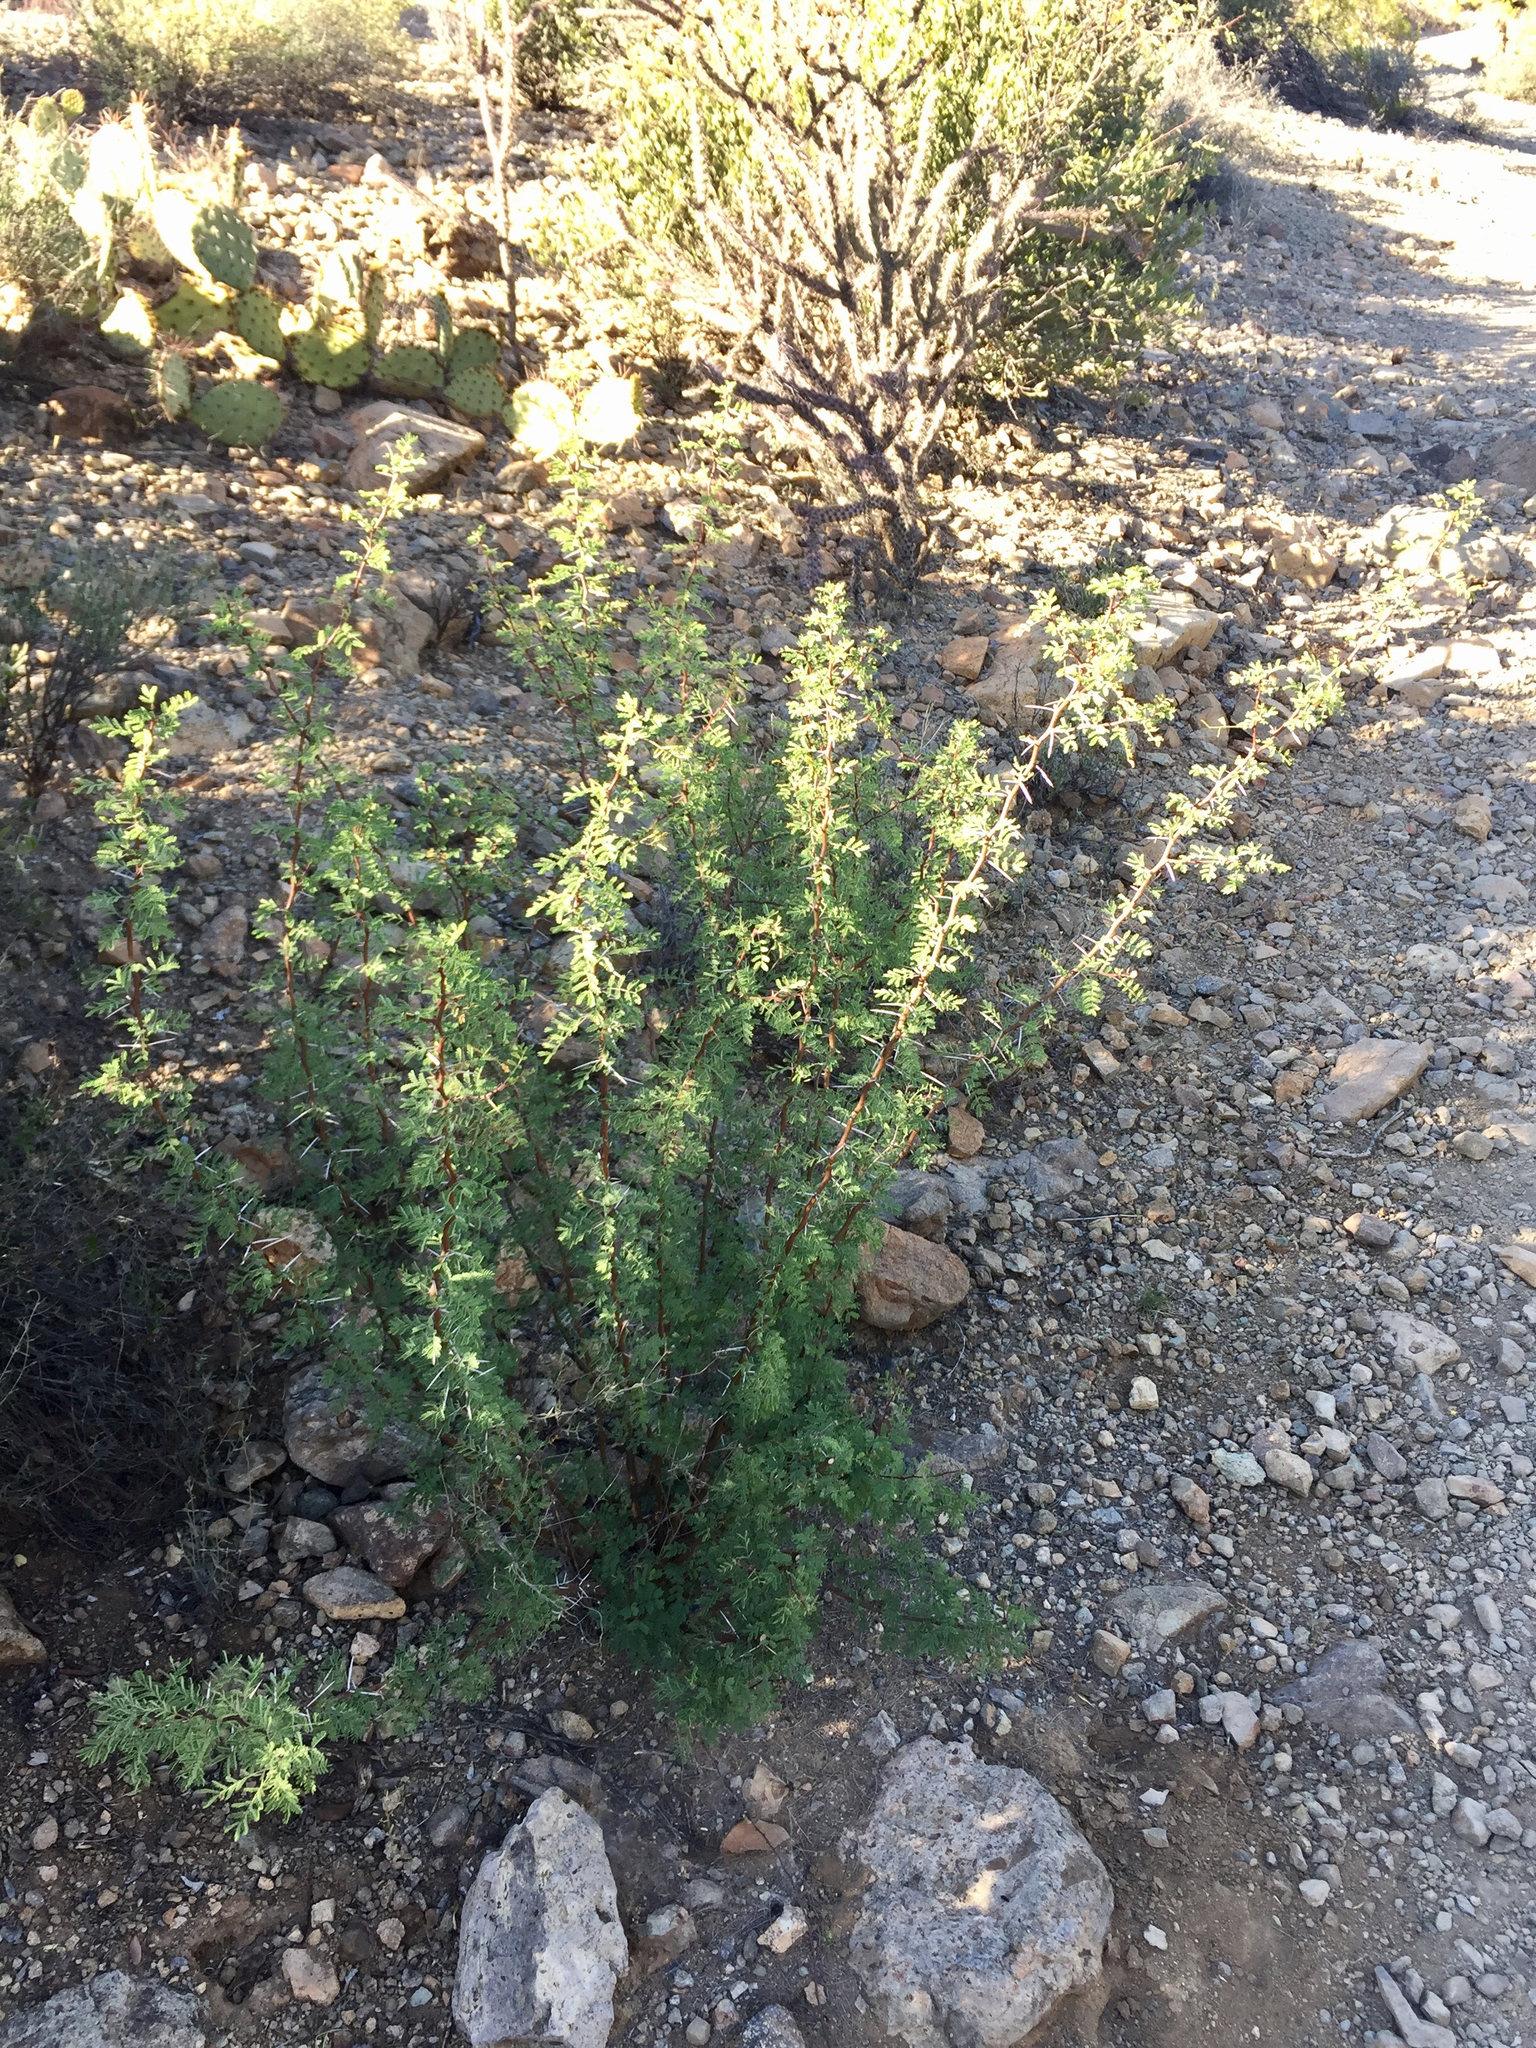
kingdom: Plantae
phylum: Tracheophyta
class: Magnoliopsida
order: Fabales
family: Fabaceae
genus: Vachellia
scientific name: Vachellia constricta
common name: Mescat acacia
